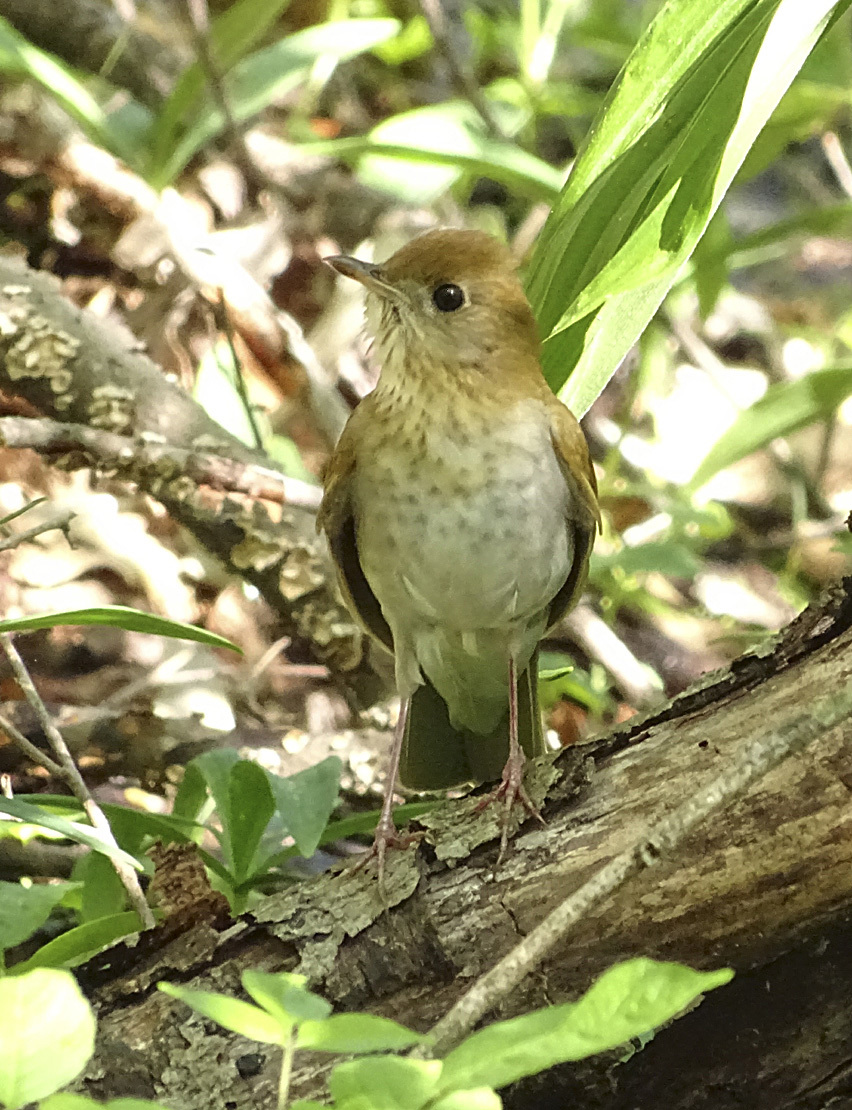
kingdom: Animalia
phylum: Chordata
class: Aves
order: Passeriformes
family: Turdidae
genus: Catharus
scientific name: Catharus fuscescens
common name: Veery
